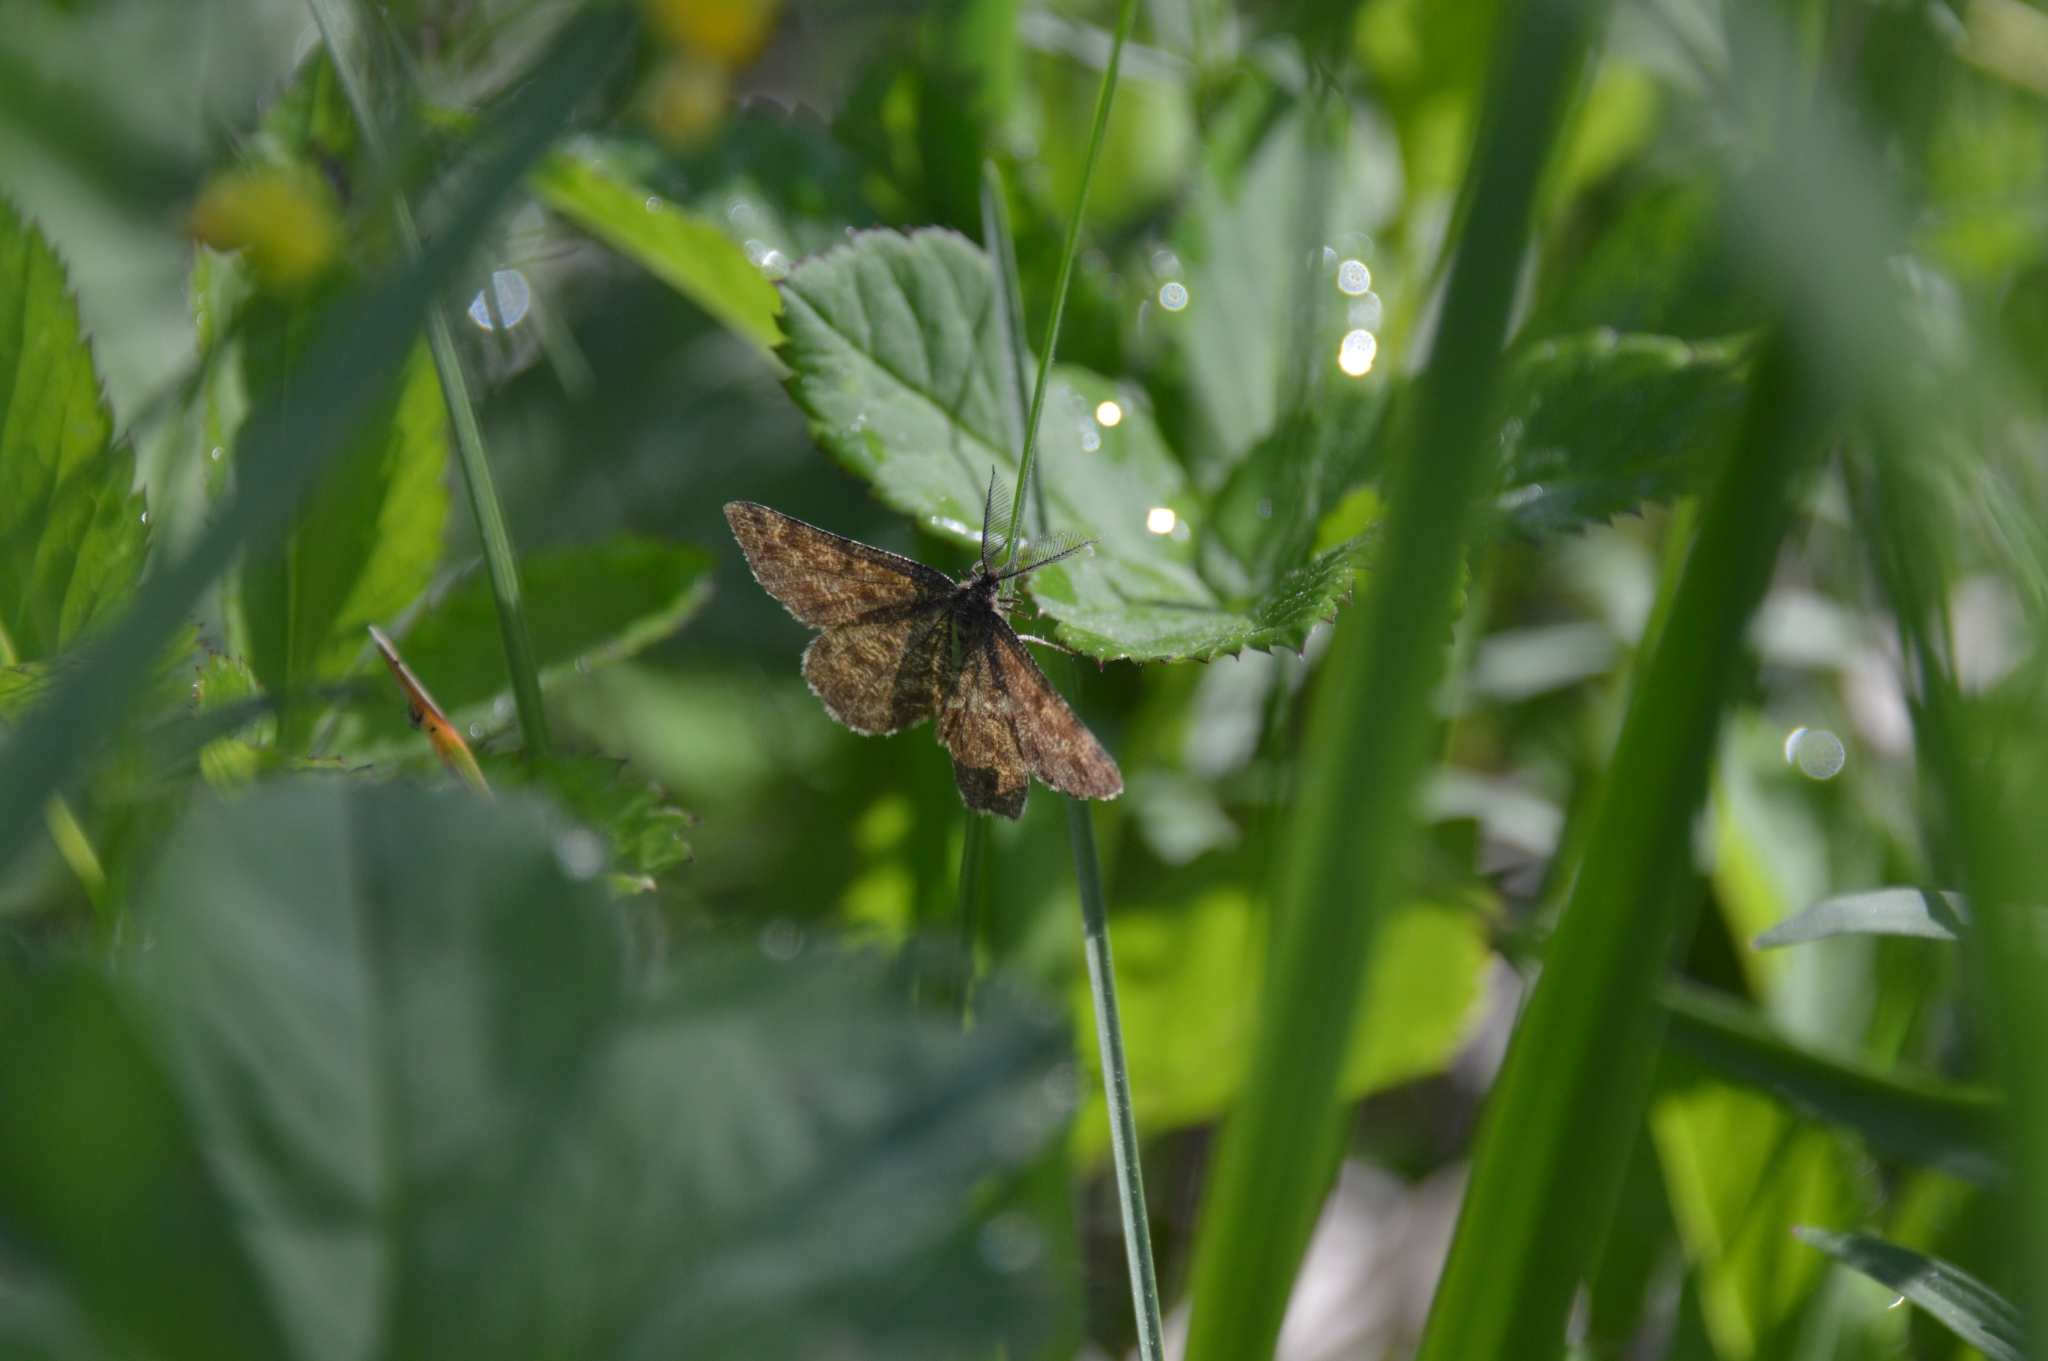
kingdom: Animalia
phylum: Arthropoda
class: Insecta
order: Lepidoptera
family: Geometridae
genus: Ematurga
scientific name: Ematurga atomaria
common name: Common heath
